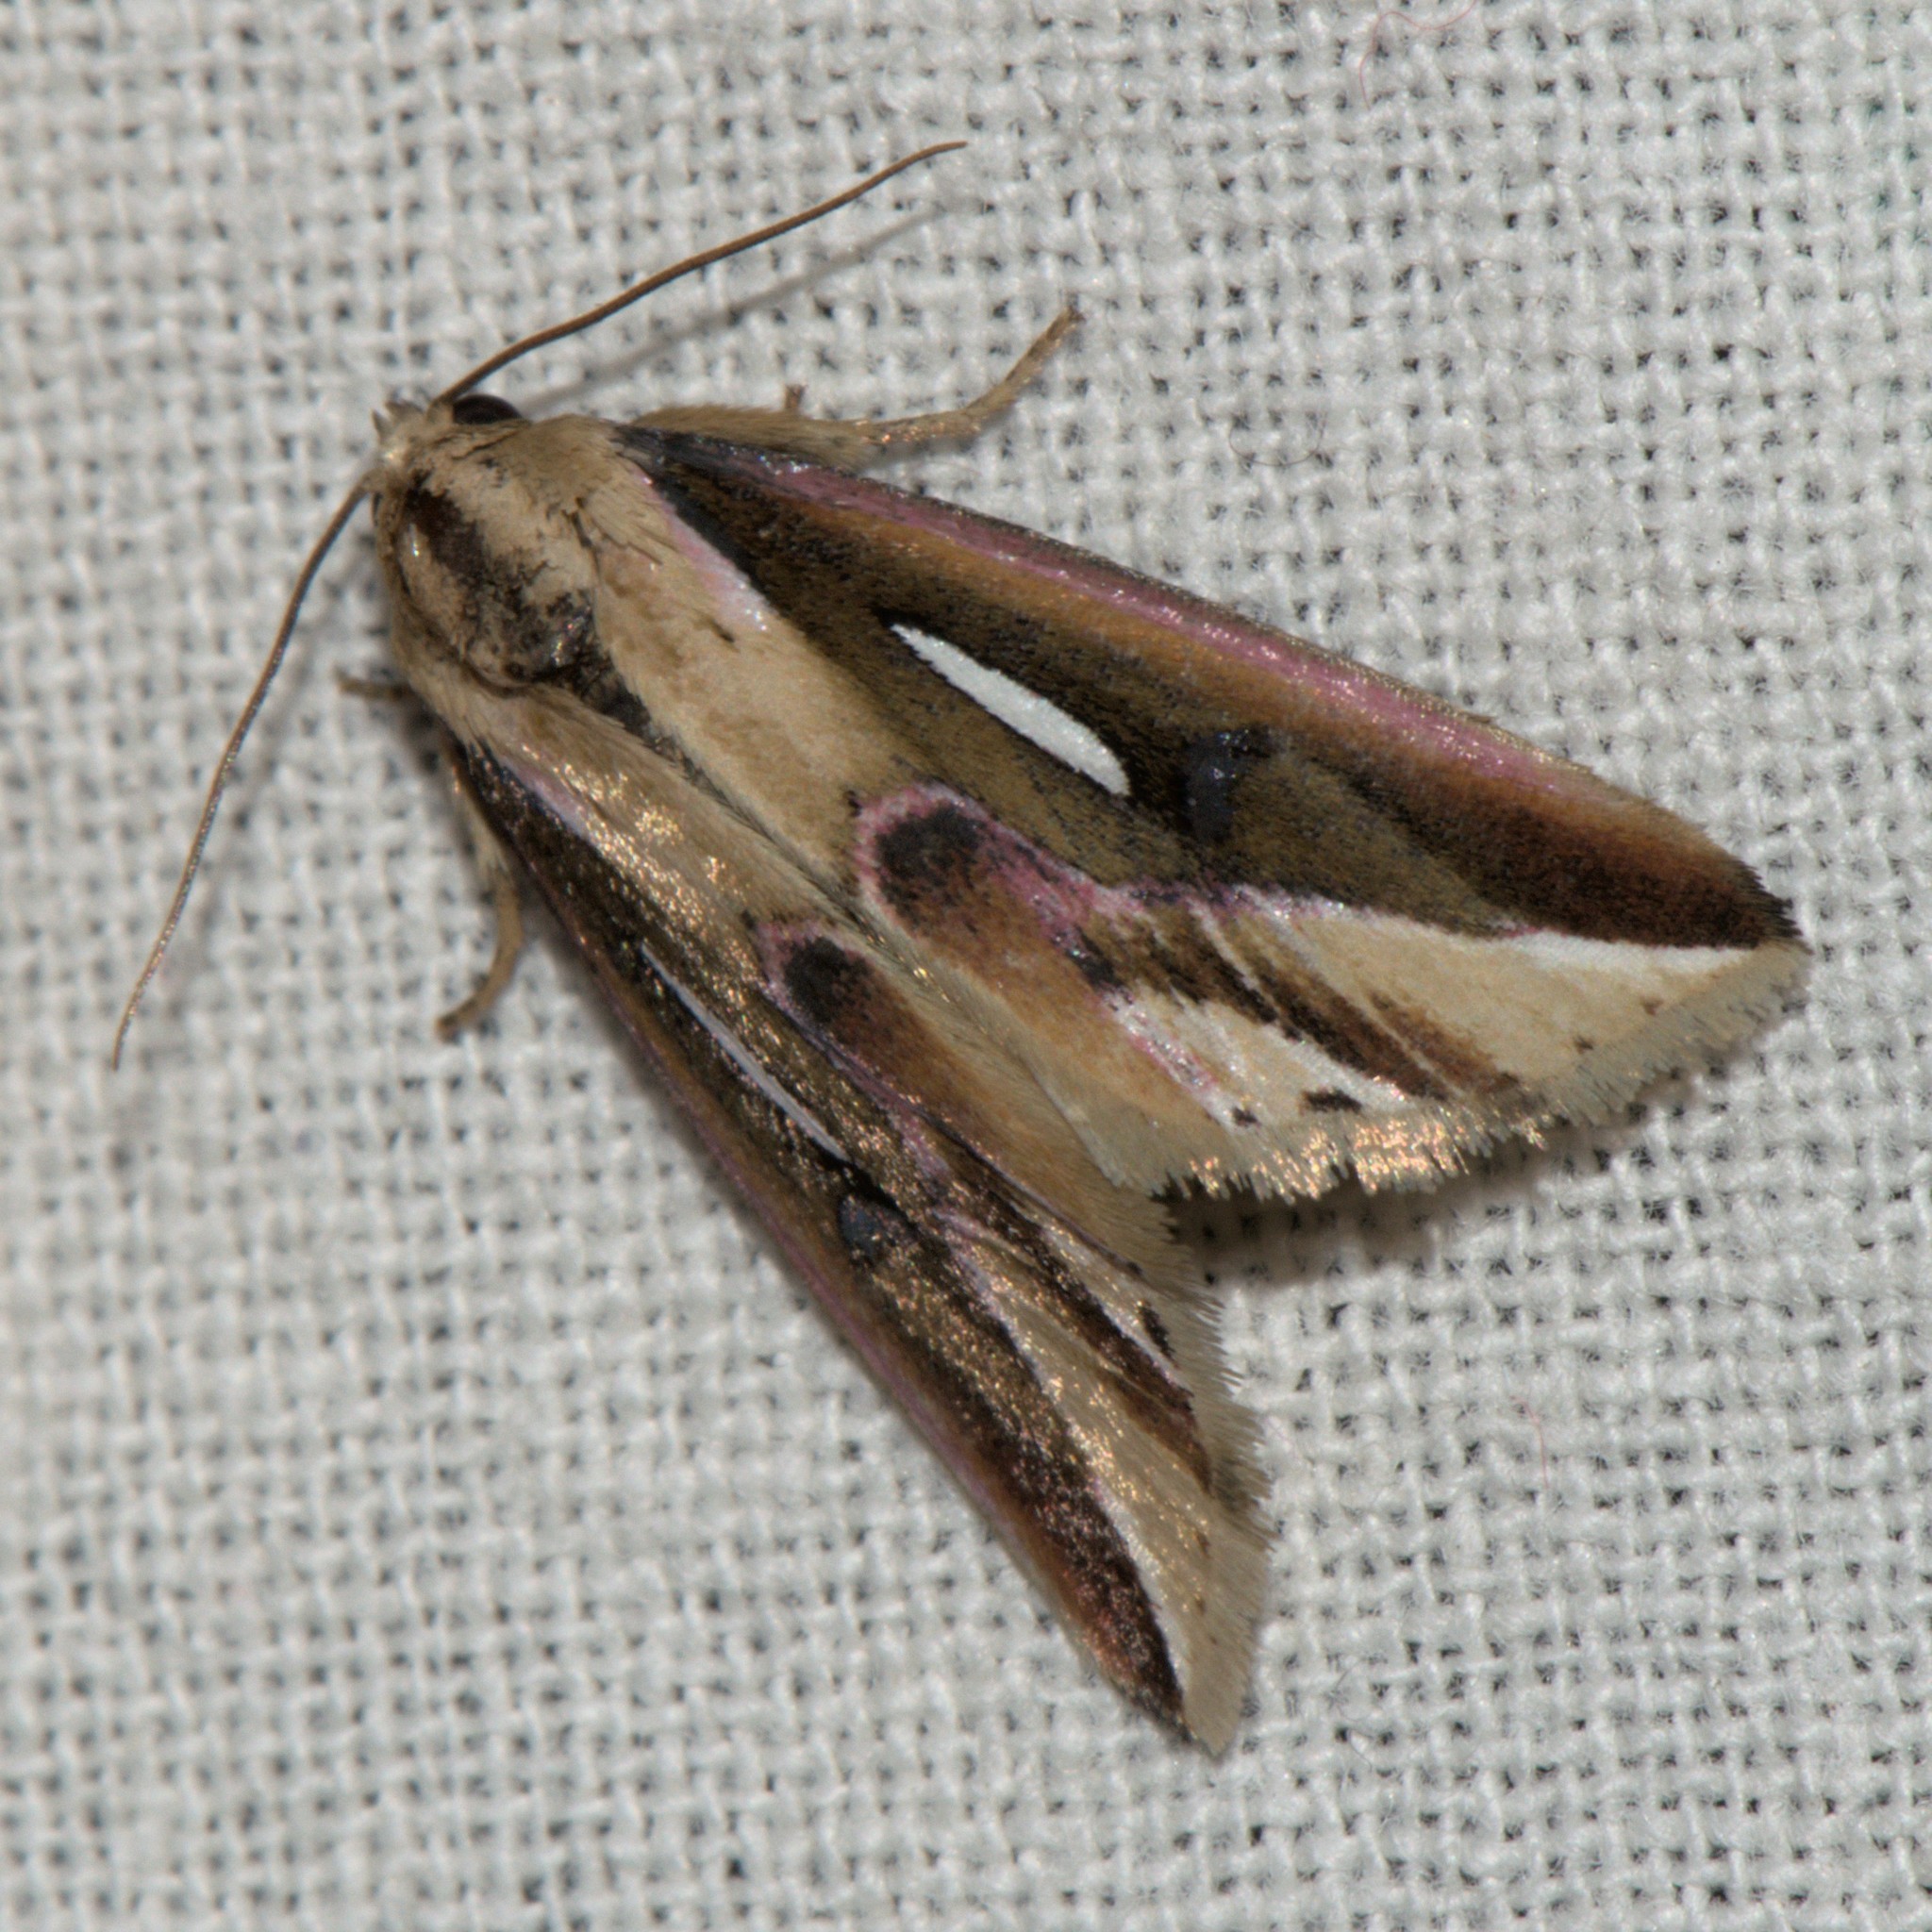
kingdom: Animalia
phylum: Arthropoda
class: Insecta
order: Lepidoptera
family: Noctuidae
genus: Micardia
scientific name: Micardia pulcherrima
